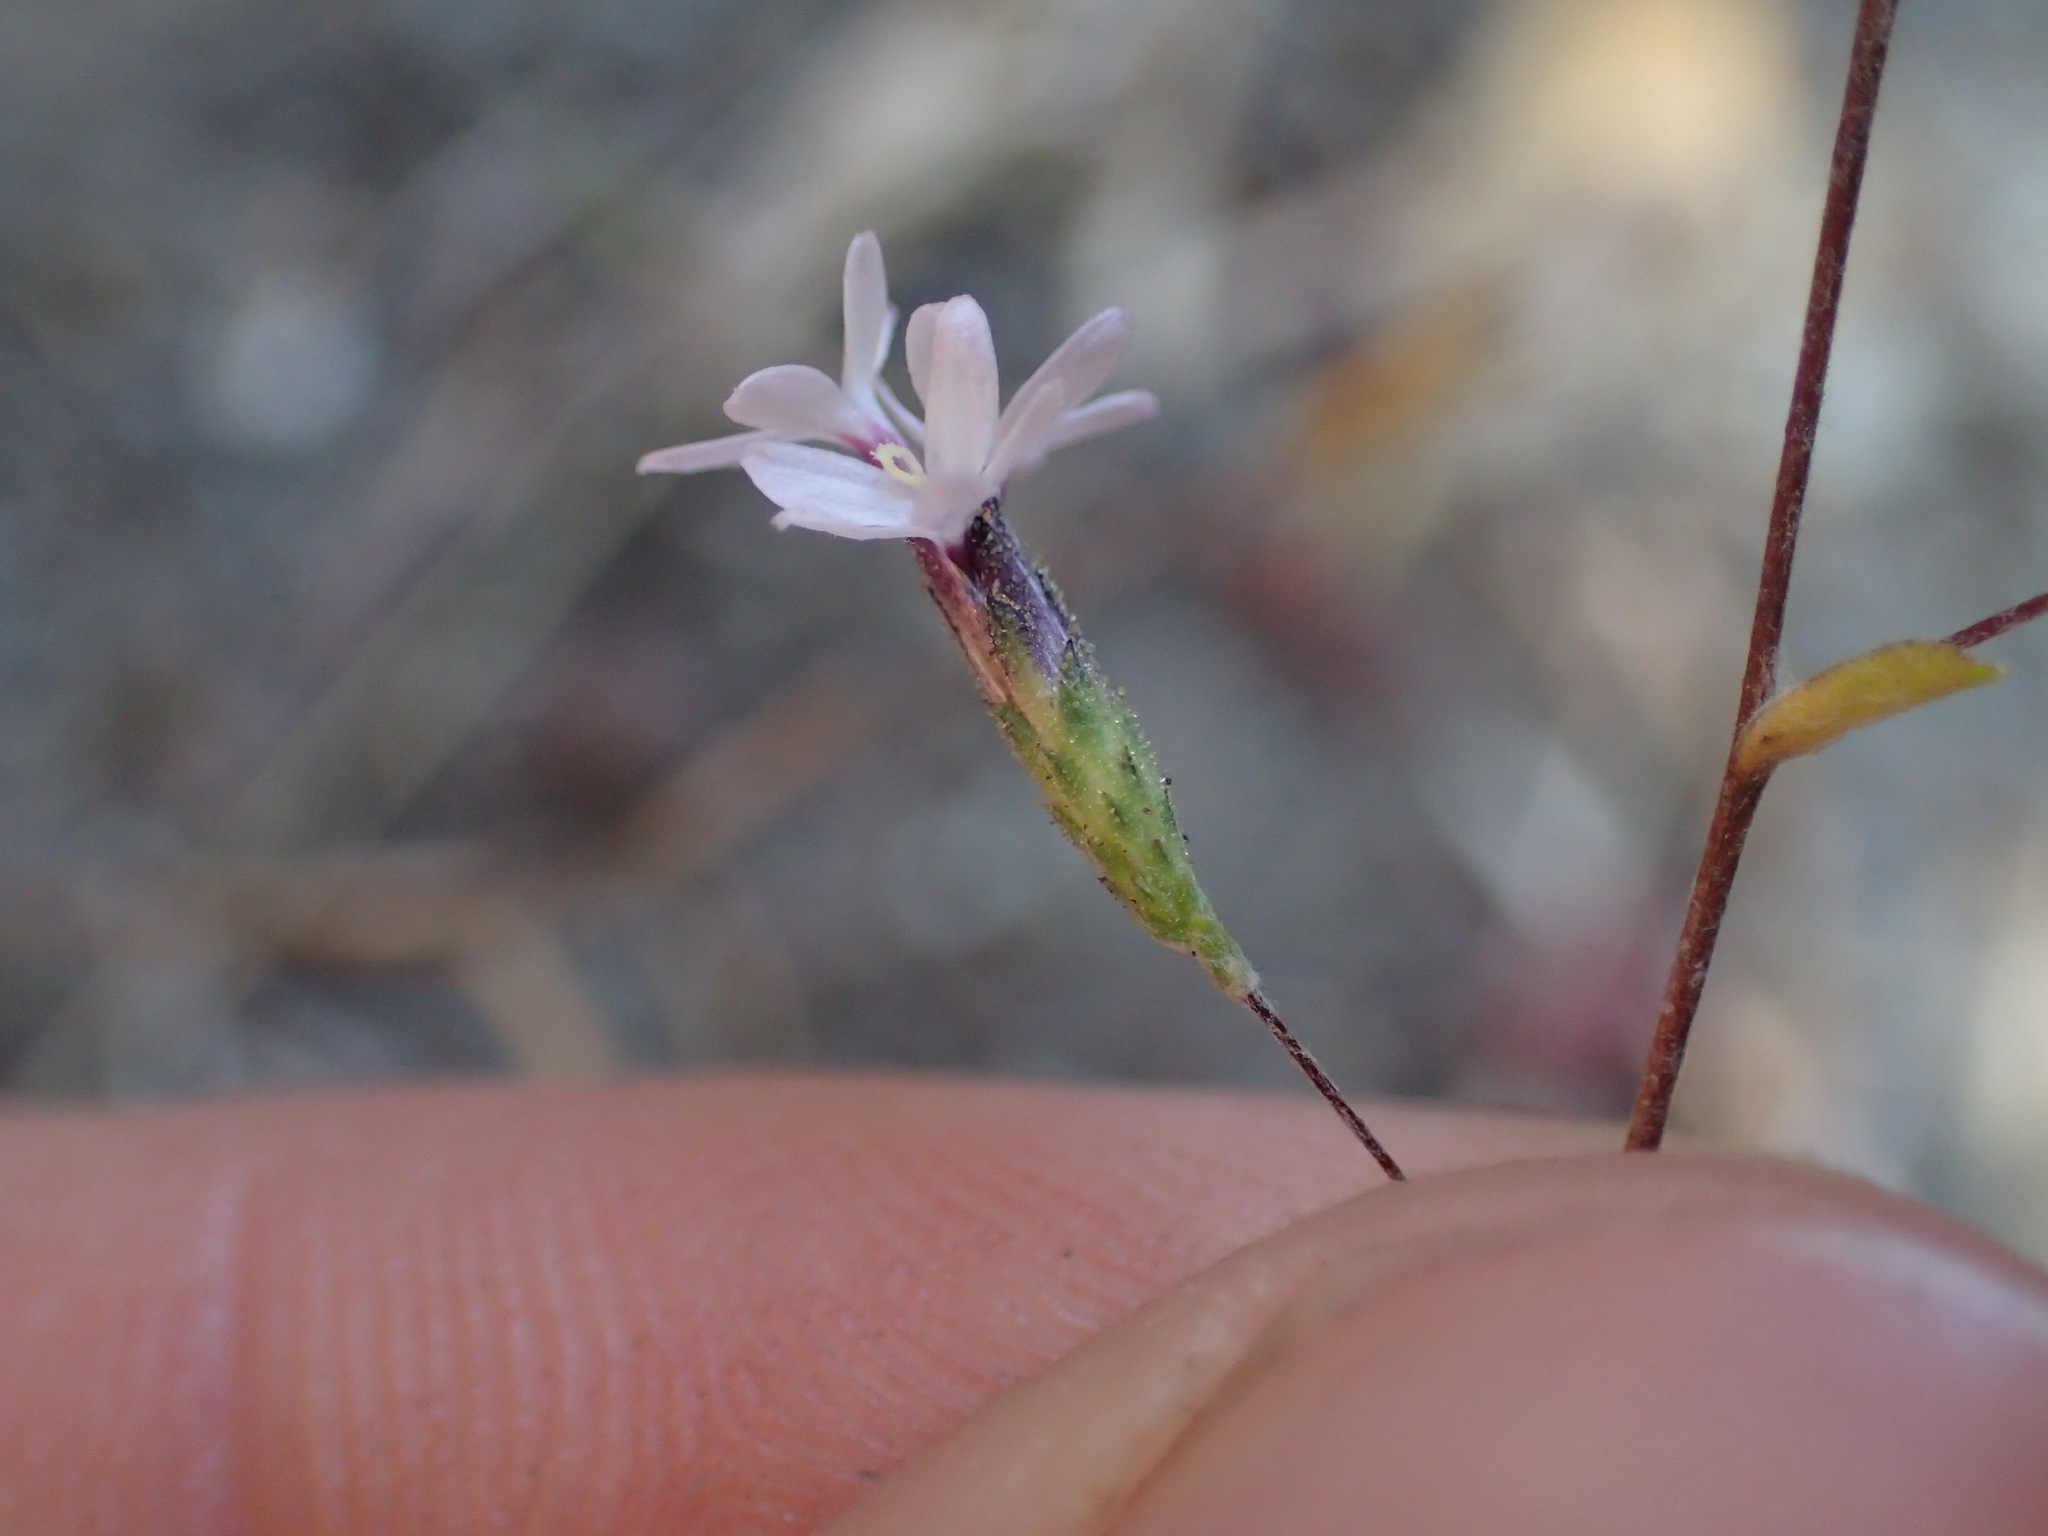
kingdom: Plantae
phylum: Tracheophyta
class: Magnoliopsida
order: Asterales
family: Asteraceae
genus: Lessingia
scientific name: Lessingia micradenia
